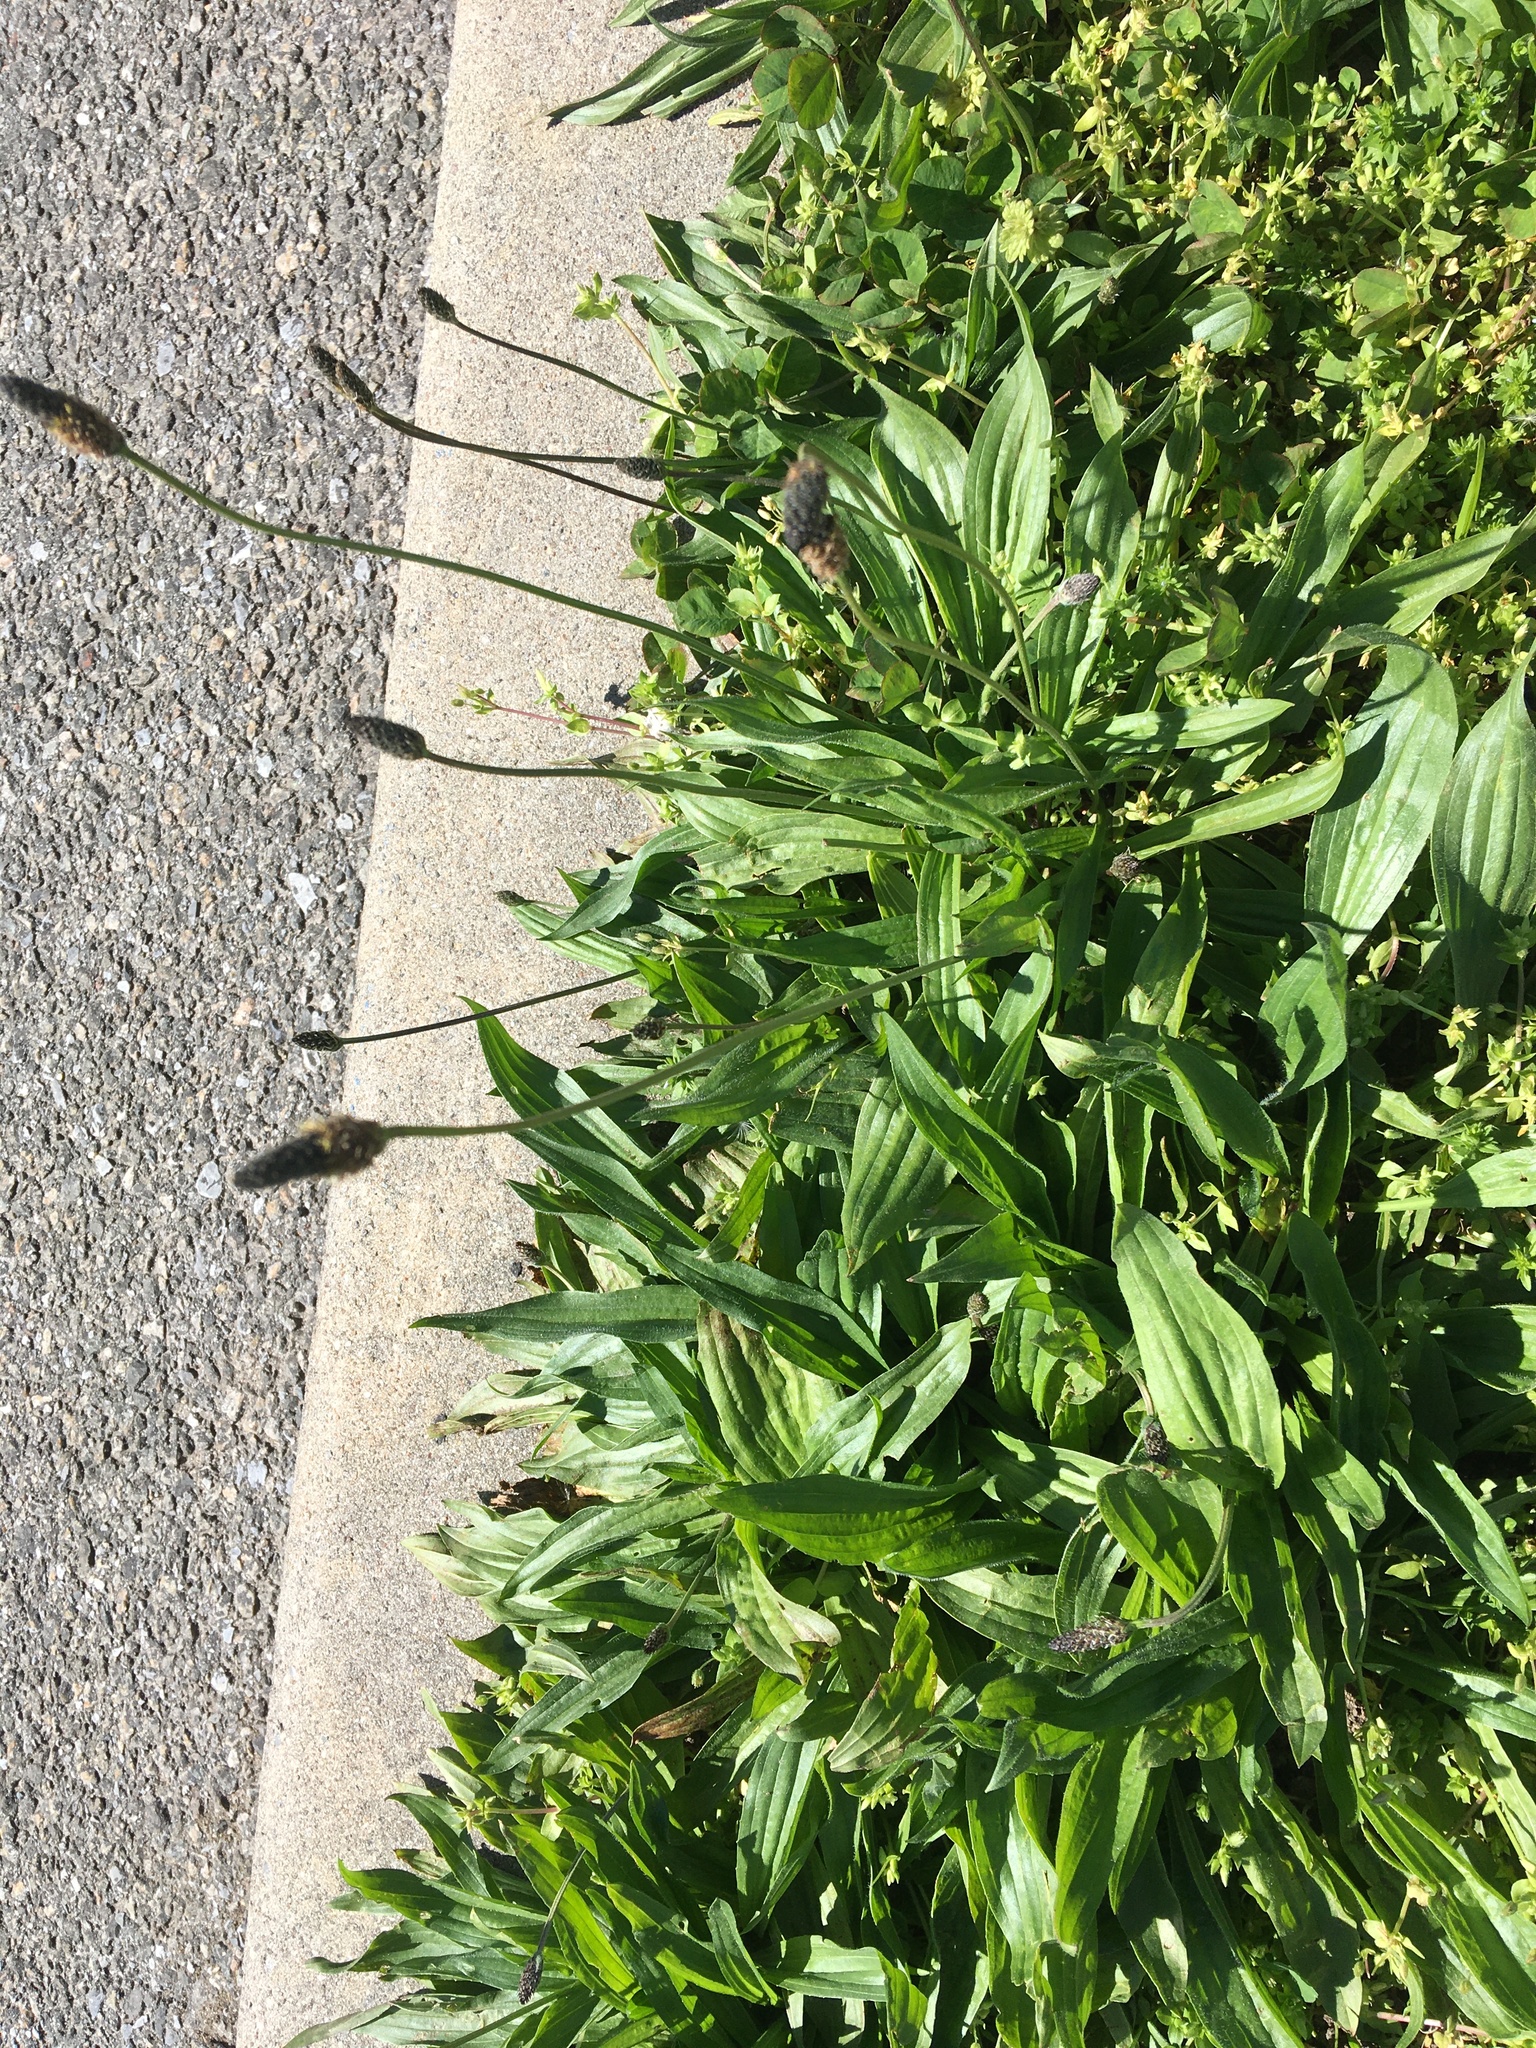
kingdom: Plantae
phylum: Tracheophyta
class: Magnoliopsida
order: Lamiales
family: Plantaginaceae
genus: Plantago
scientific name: Plantago lanceolata
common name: Ribwort plantain
